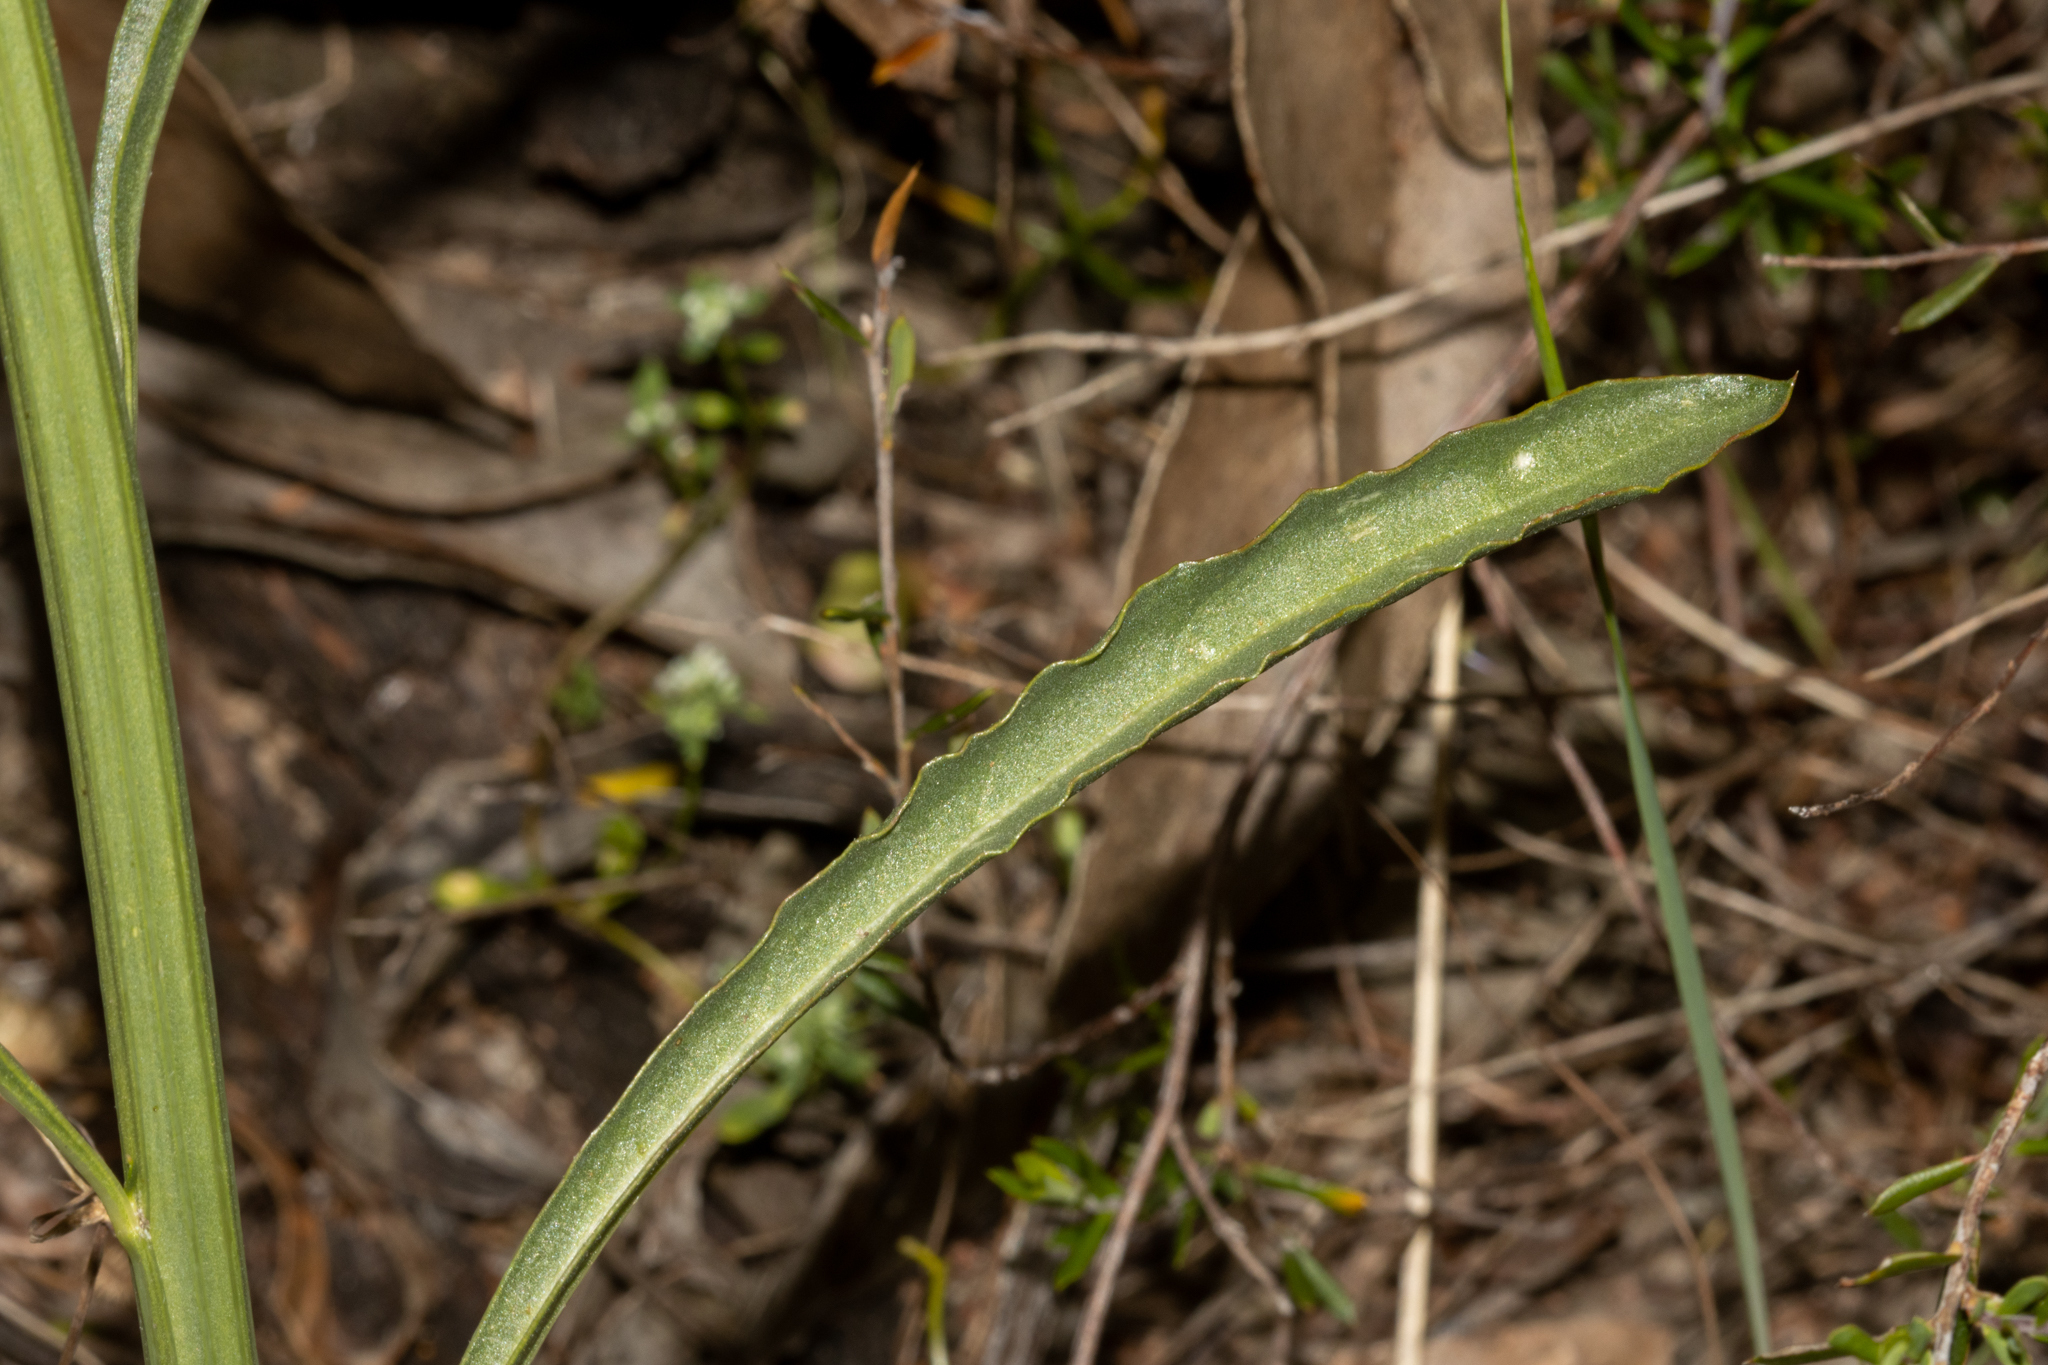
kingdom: Plantae
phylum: Tracheophyta
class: Magnoliopsida
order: Caryophyllales
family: Amaranthaceae
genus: Ptilotus
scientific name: Ptilotus macrocephalus
